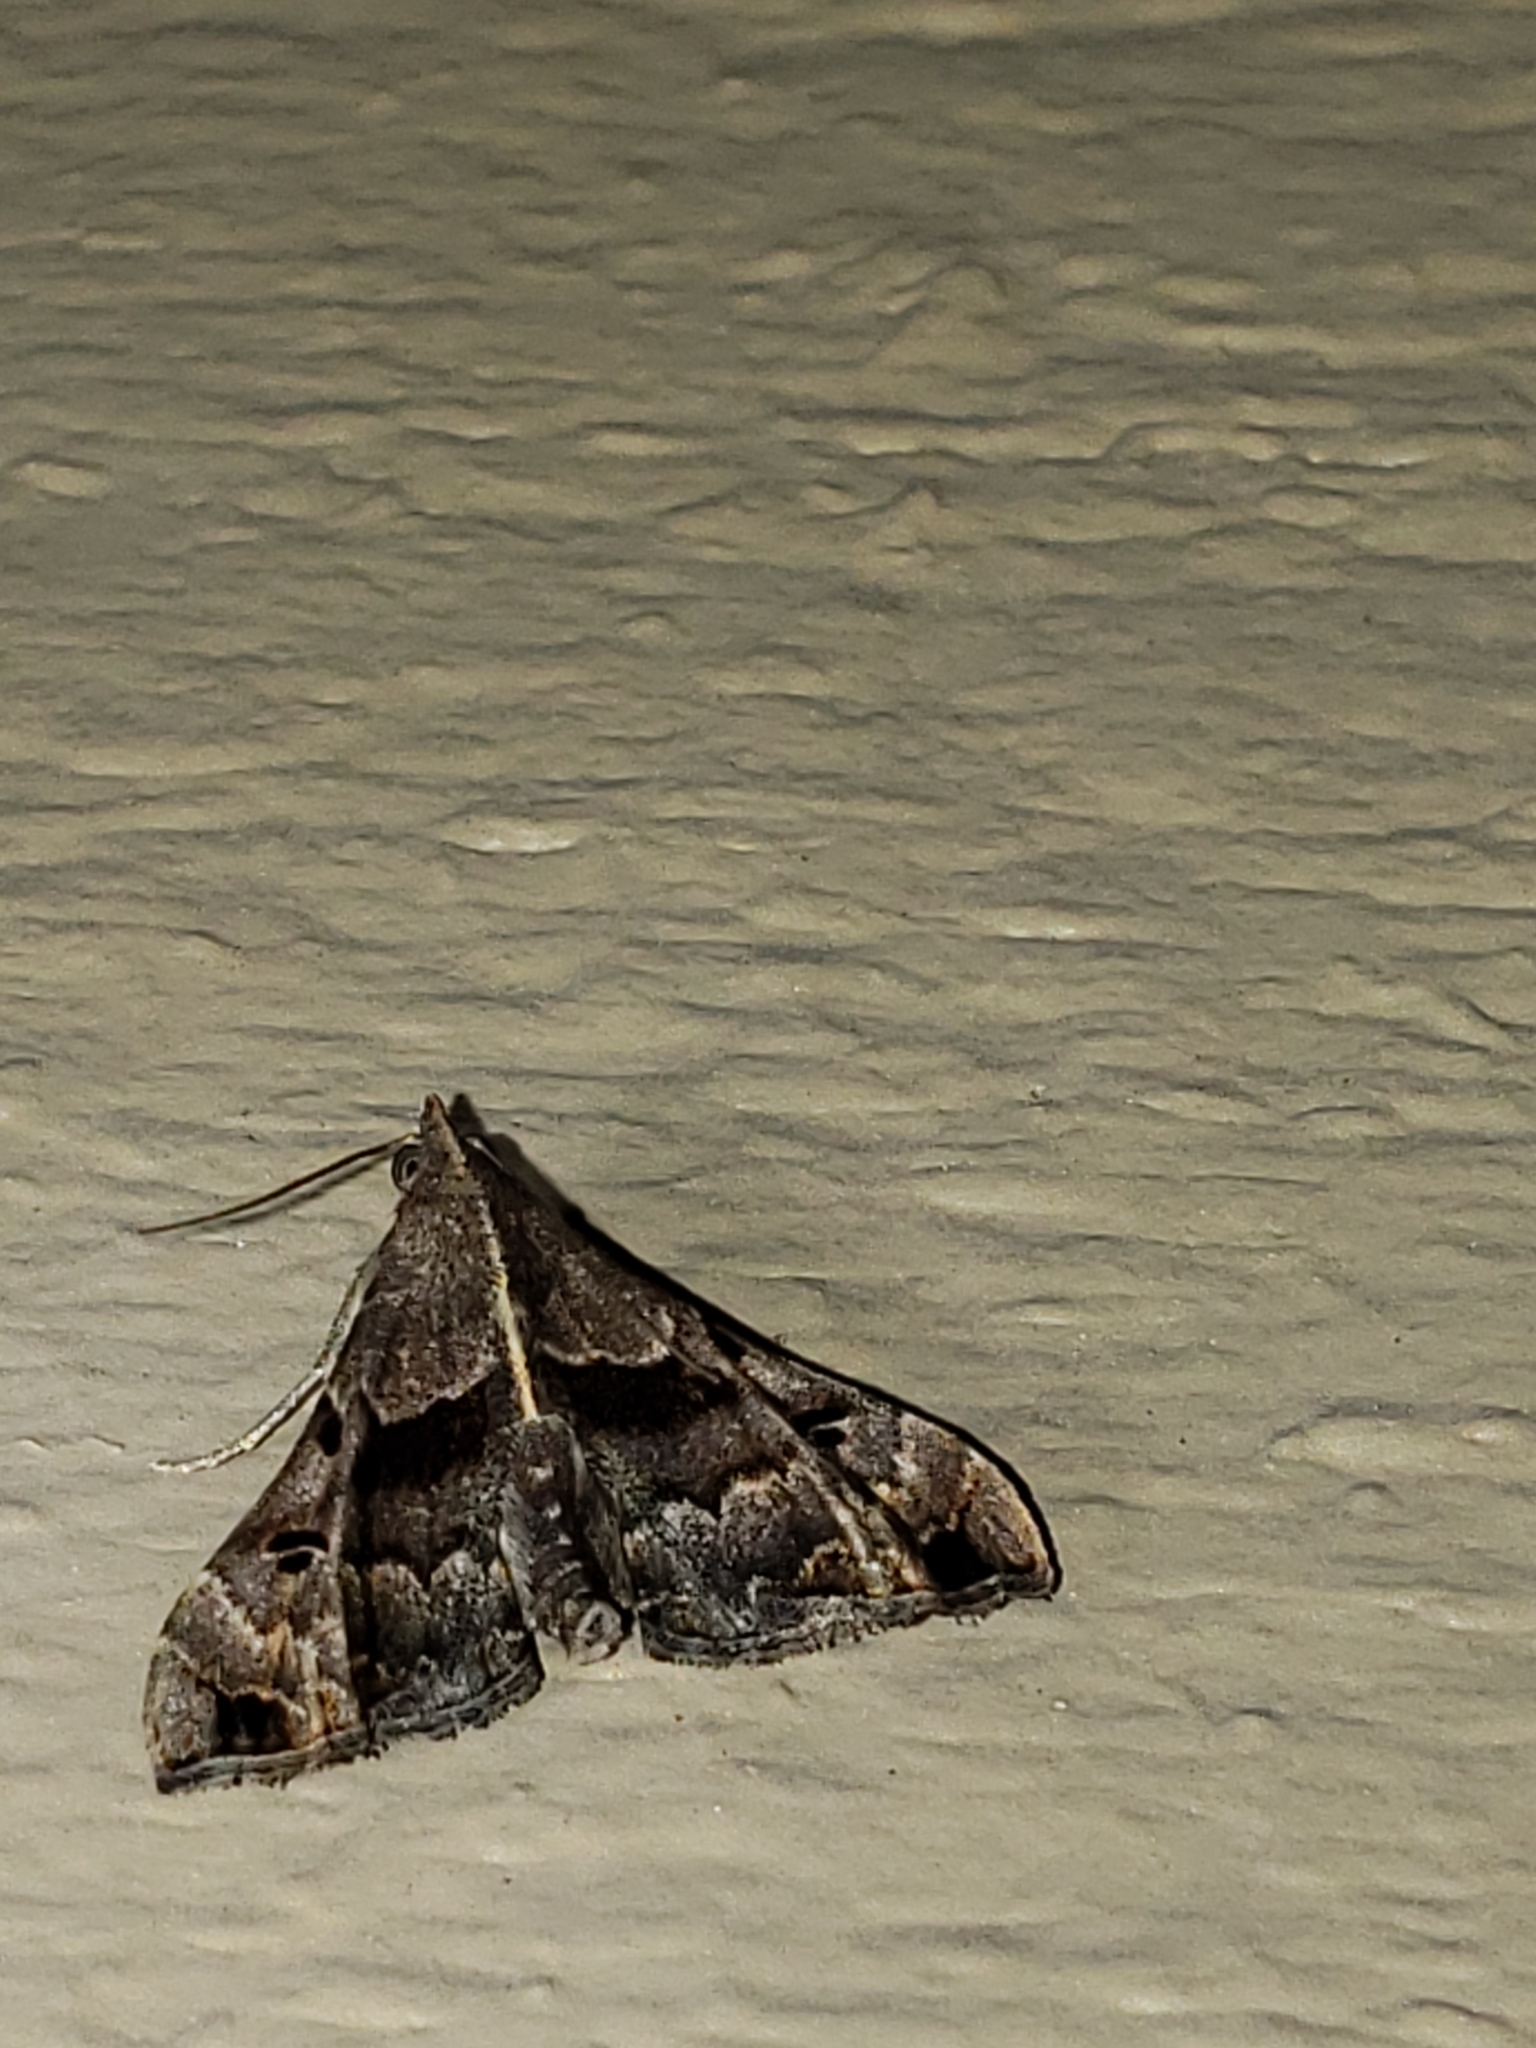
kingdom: Animalia
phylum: Arthropoda
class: Insecta
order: Lepidoptera
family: Erebidae
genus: Palthis
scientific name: Palthis asopialis
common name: Faint-spotted palthis moth
